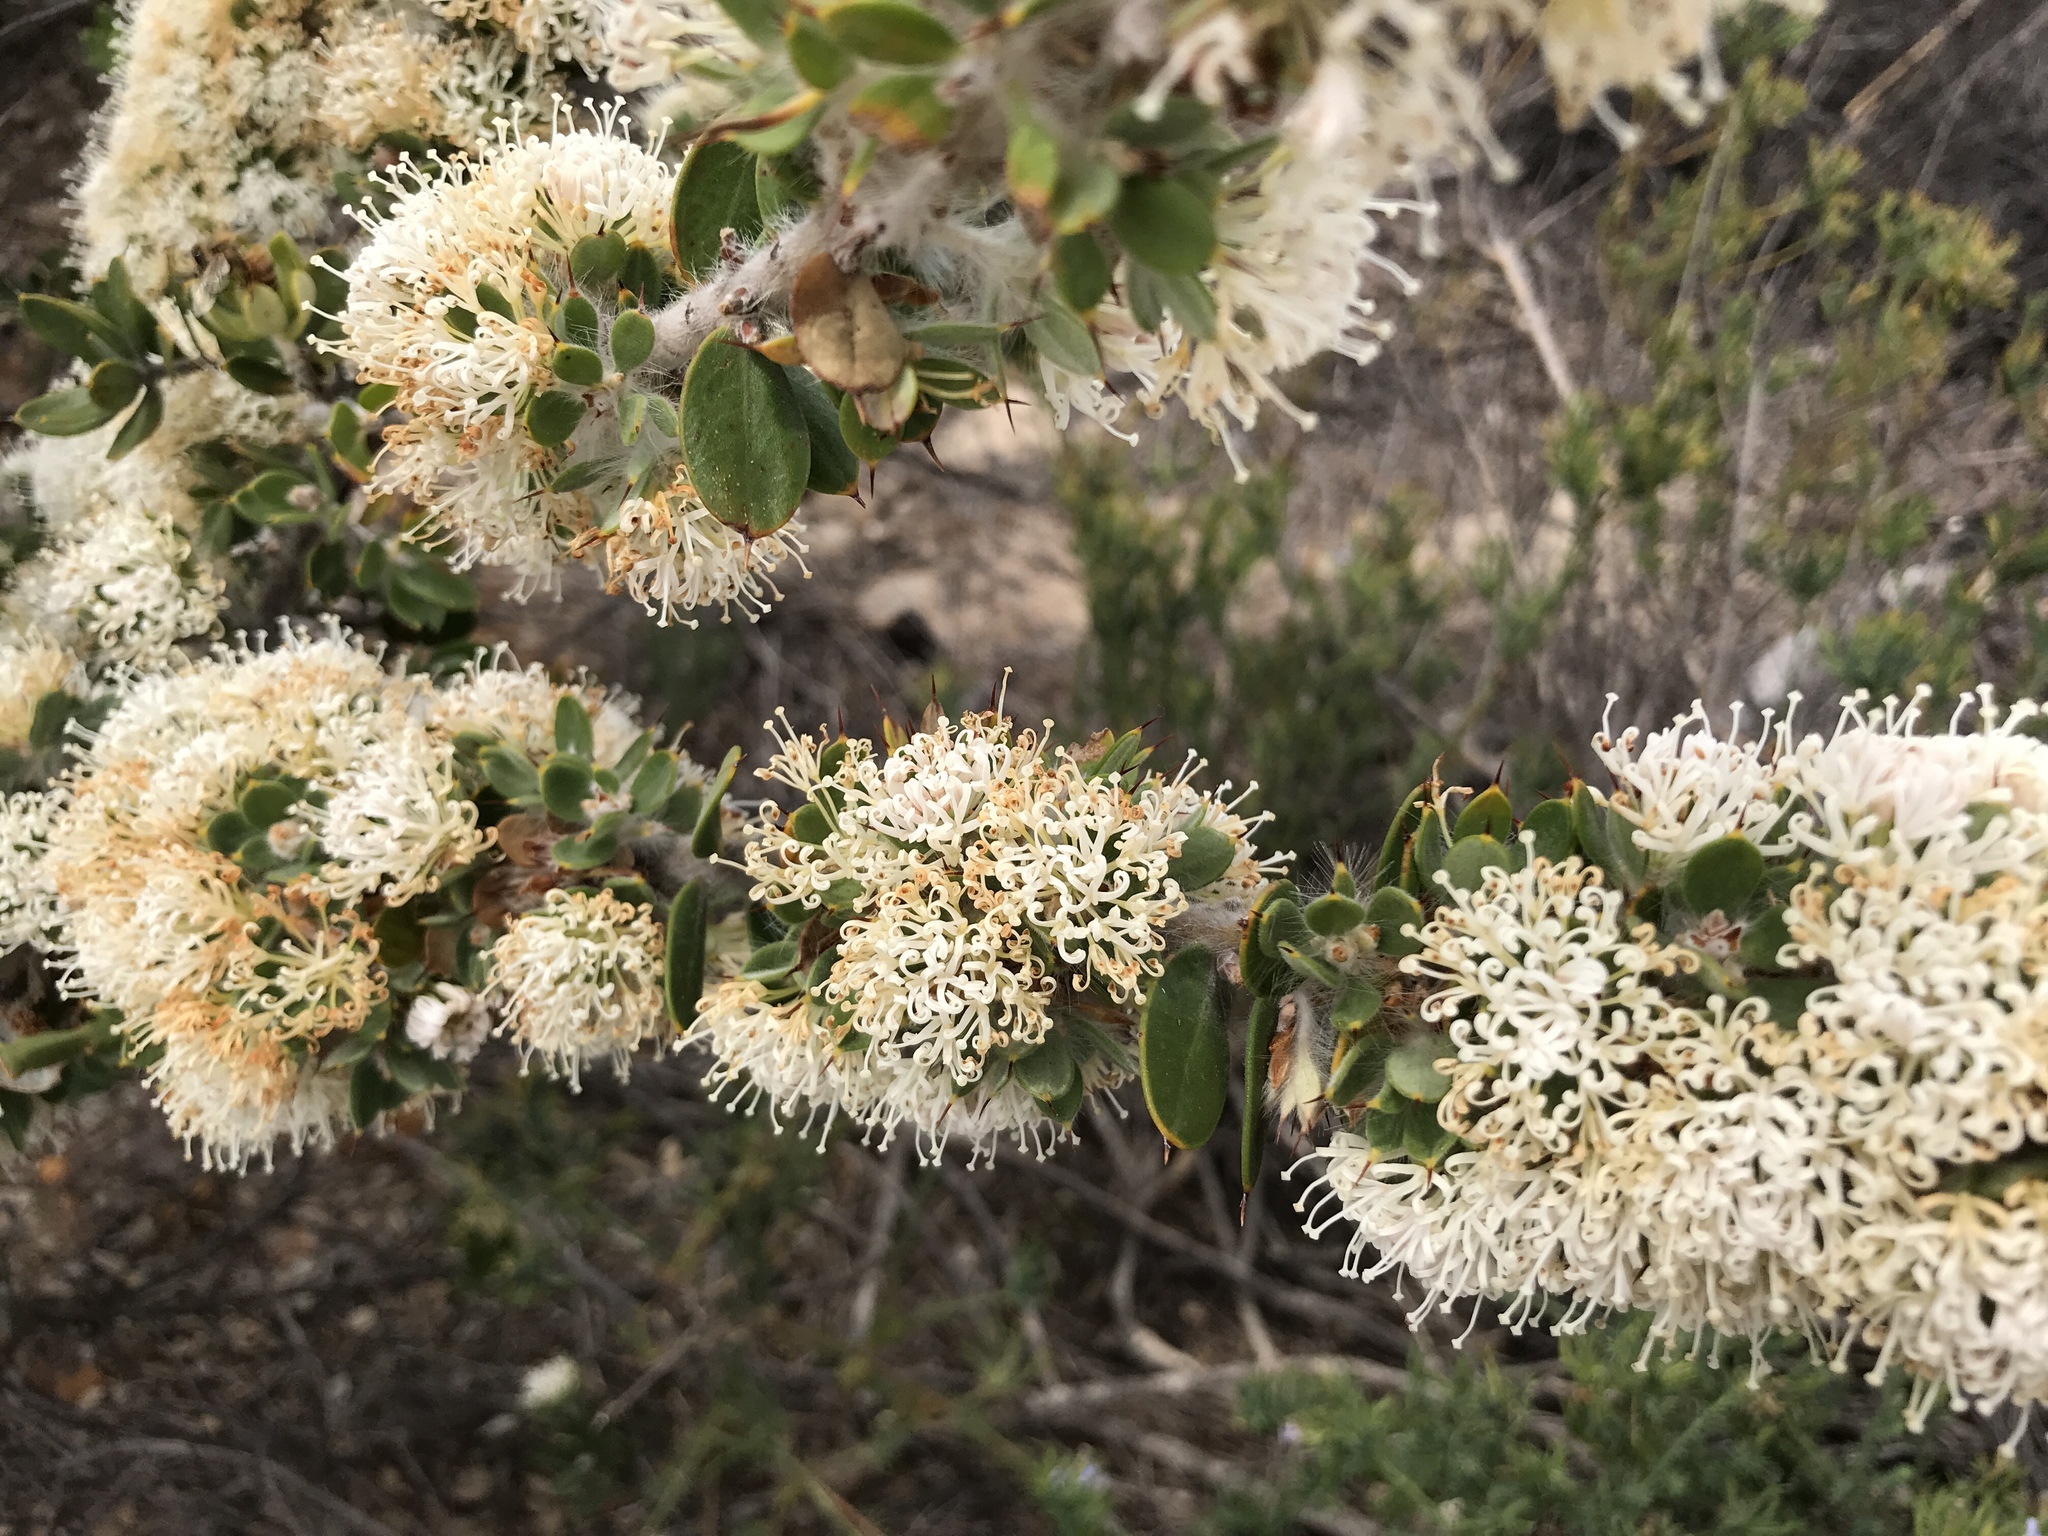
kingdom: Plantae
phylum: Tracheophyta
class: Magnoliopsida
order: Proteales
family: Proteaceae
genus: Hakea
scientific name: Hakea ruscifolia
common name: Candle hakea
